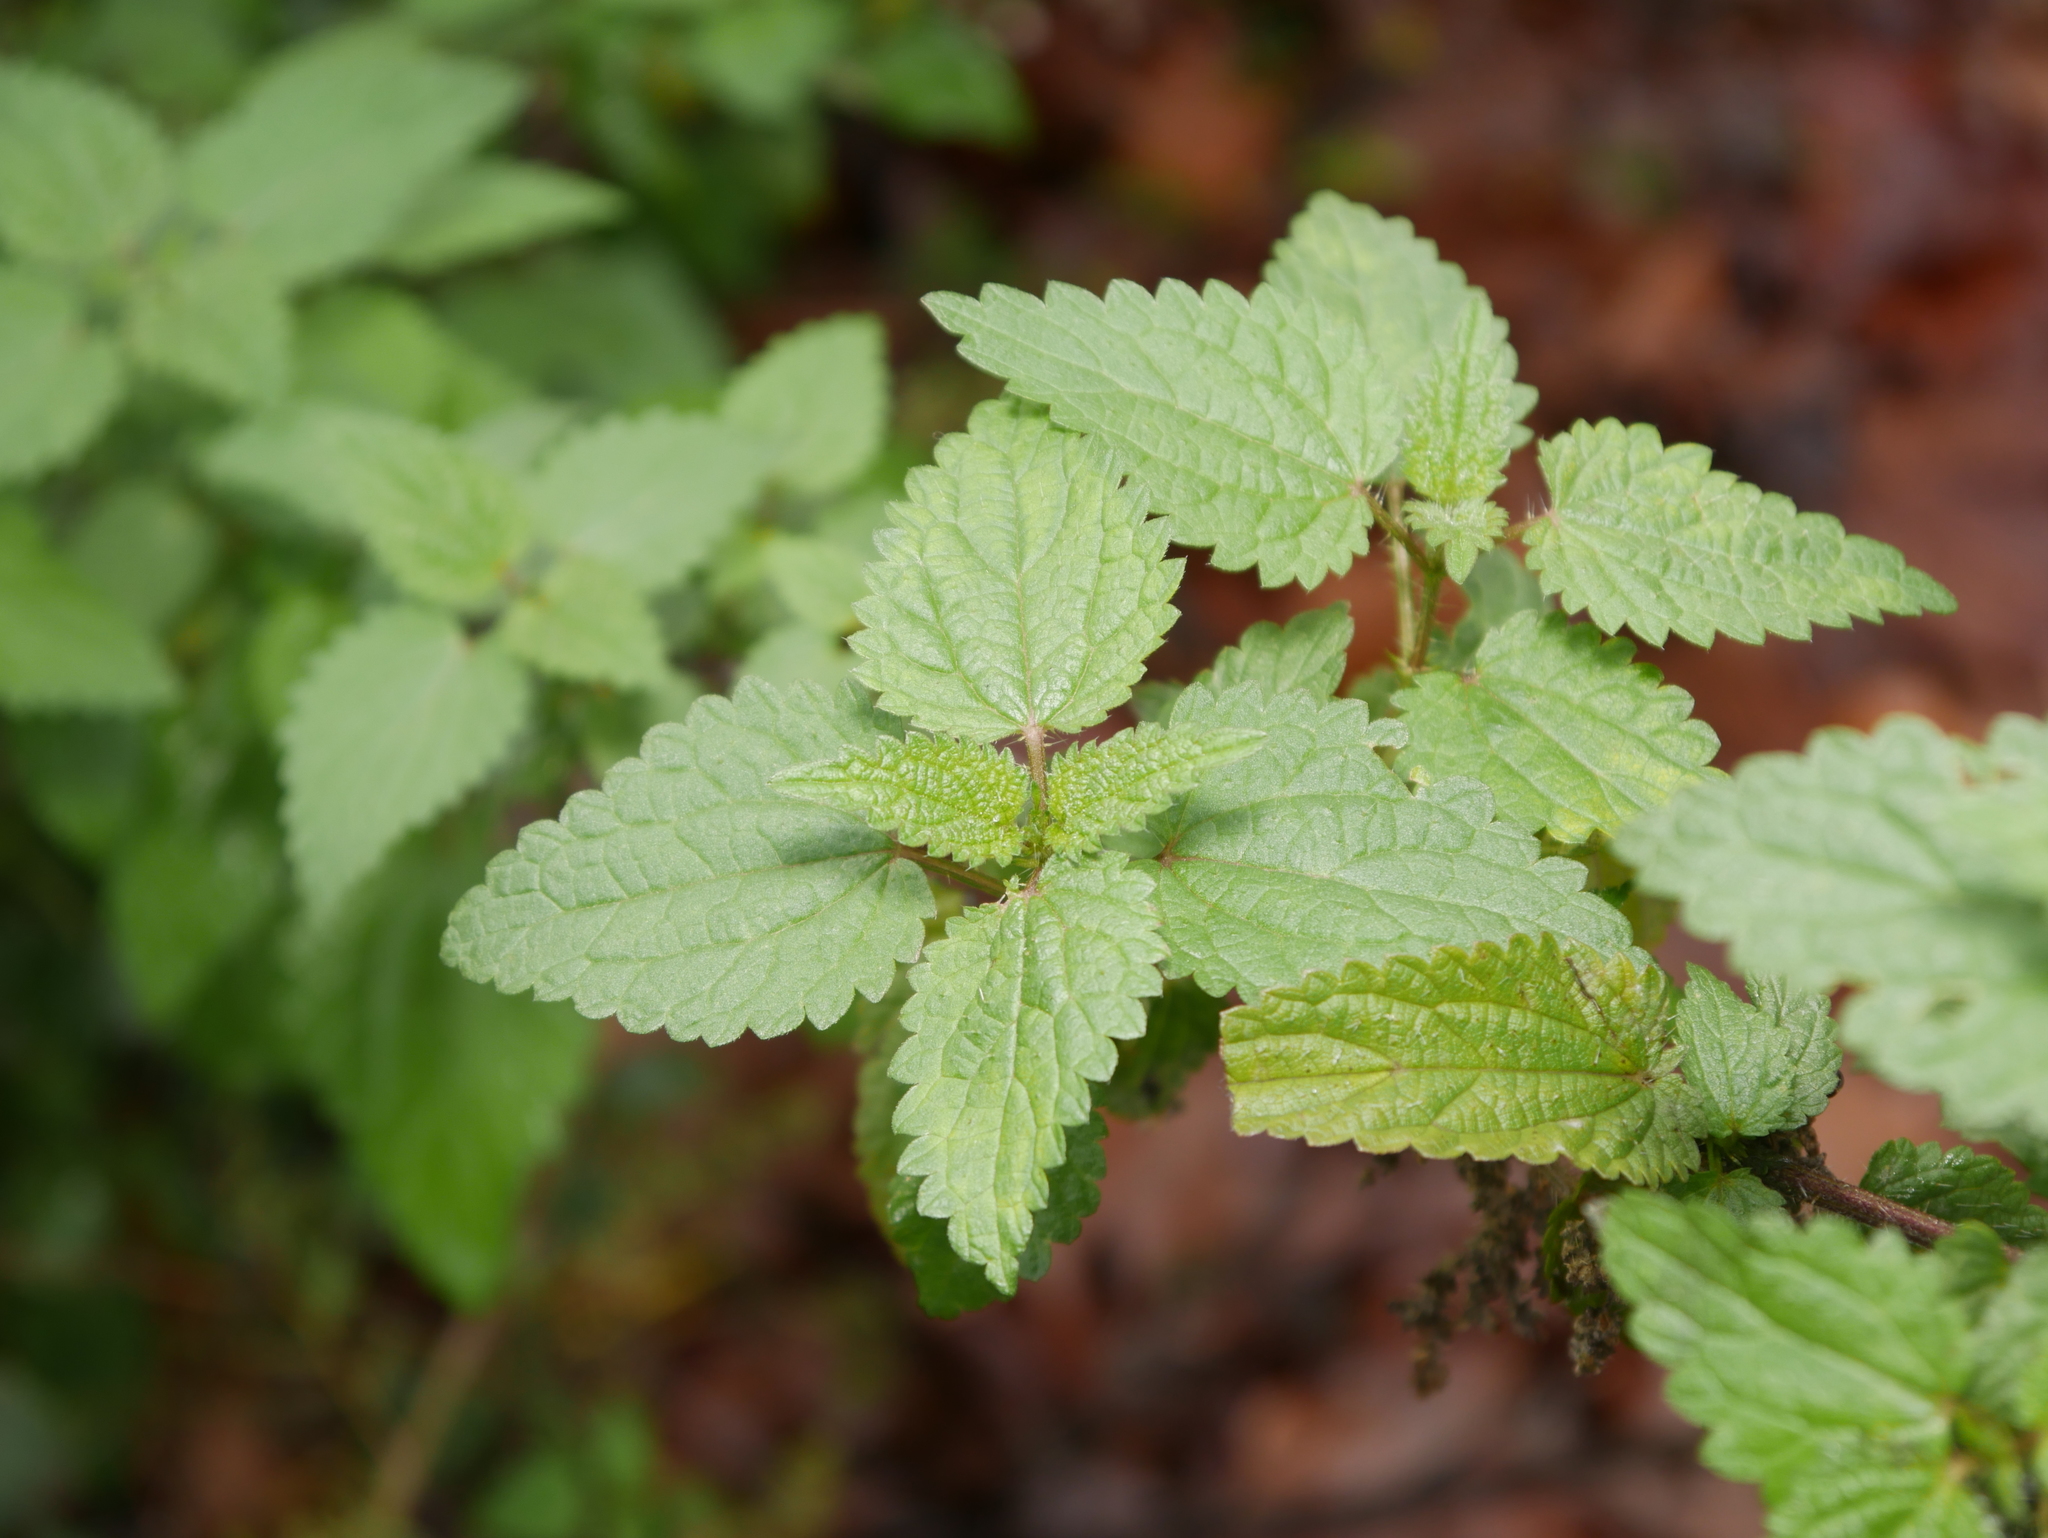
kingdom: Plantae
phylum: Tracheophyta
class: Magnoliopsida
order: Rosales
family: Urticaceae
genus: Urtica
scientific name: Urtica dioica
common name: Common nettle
